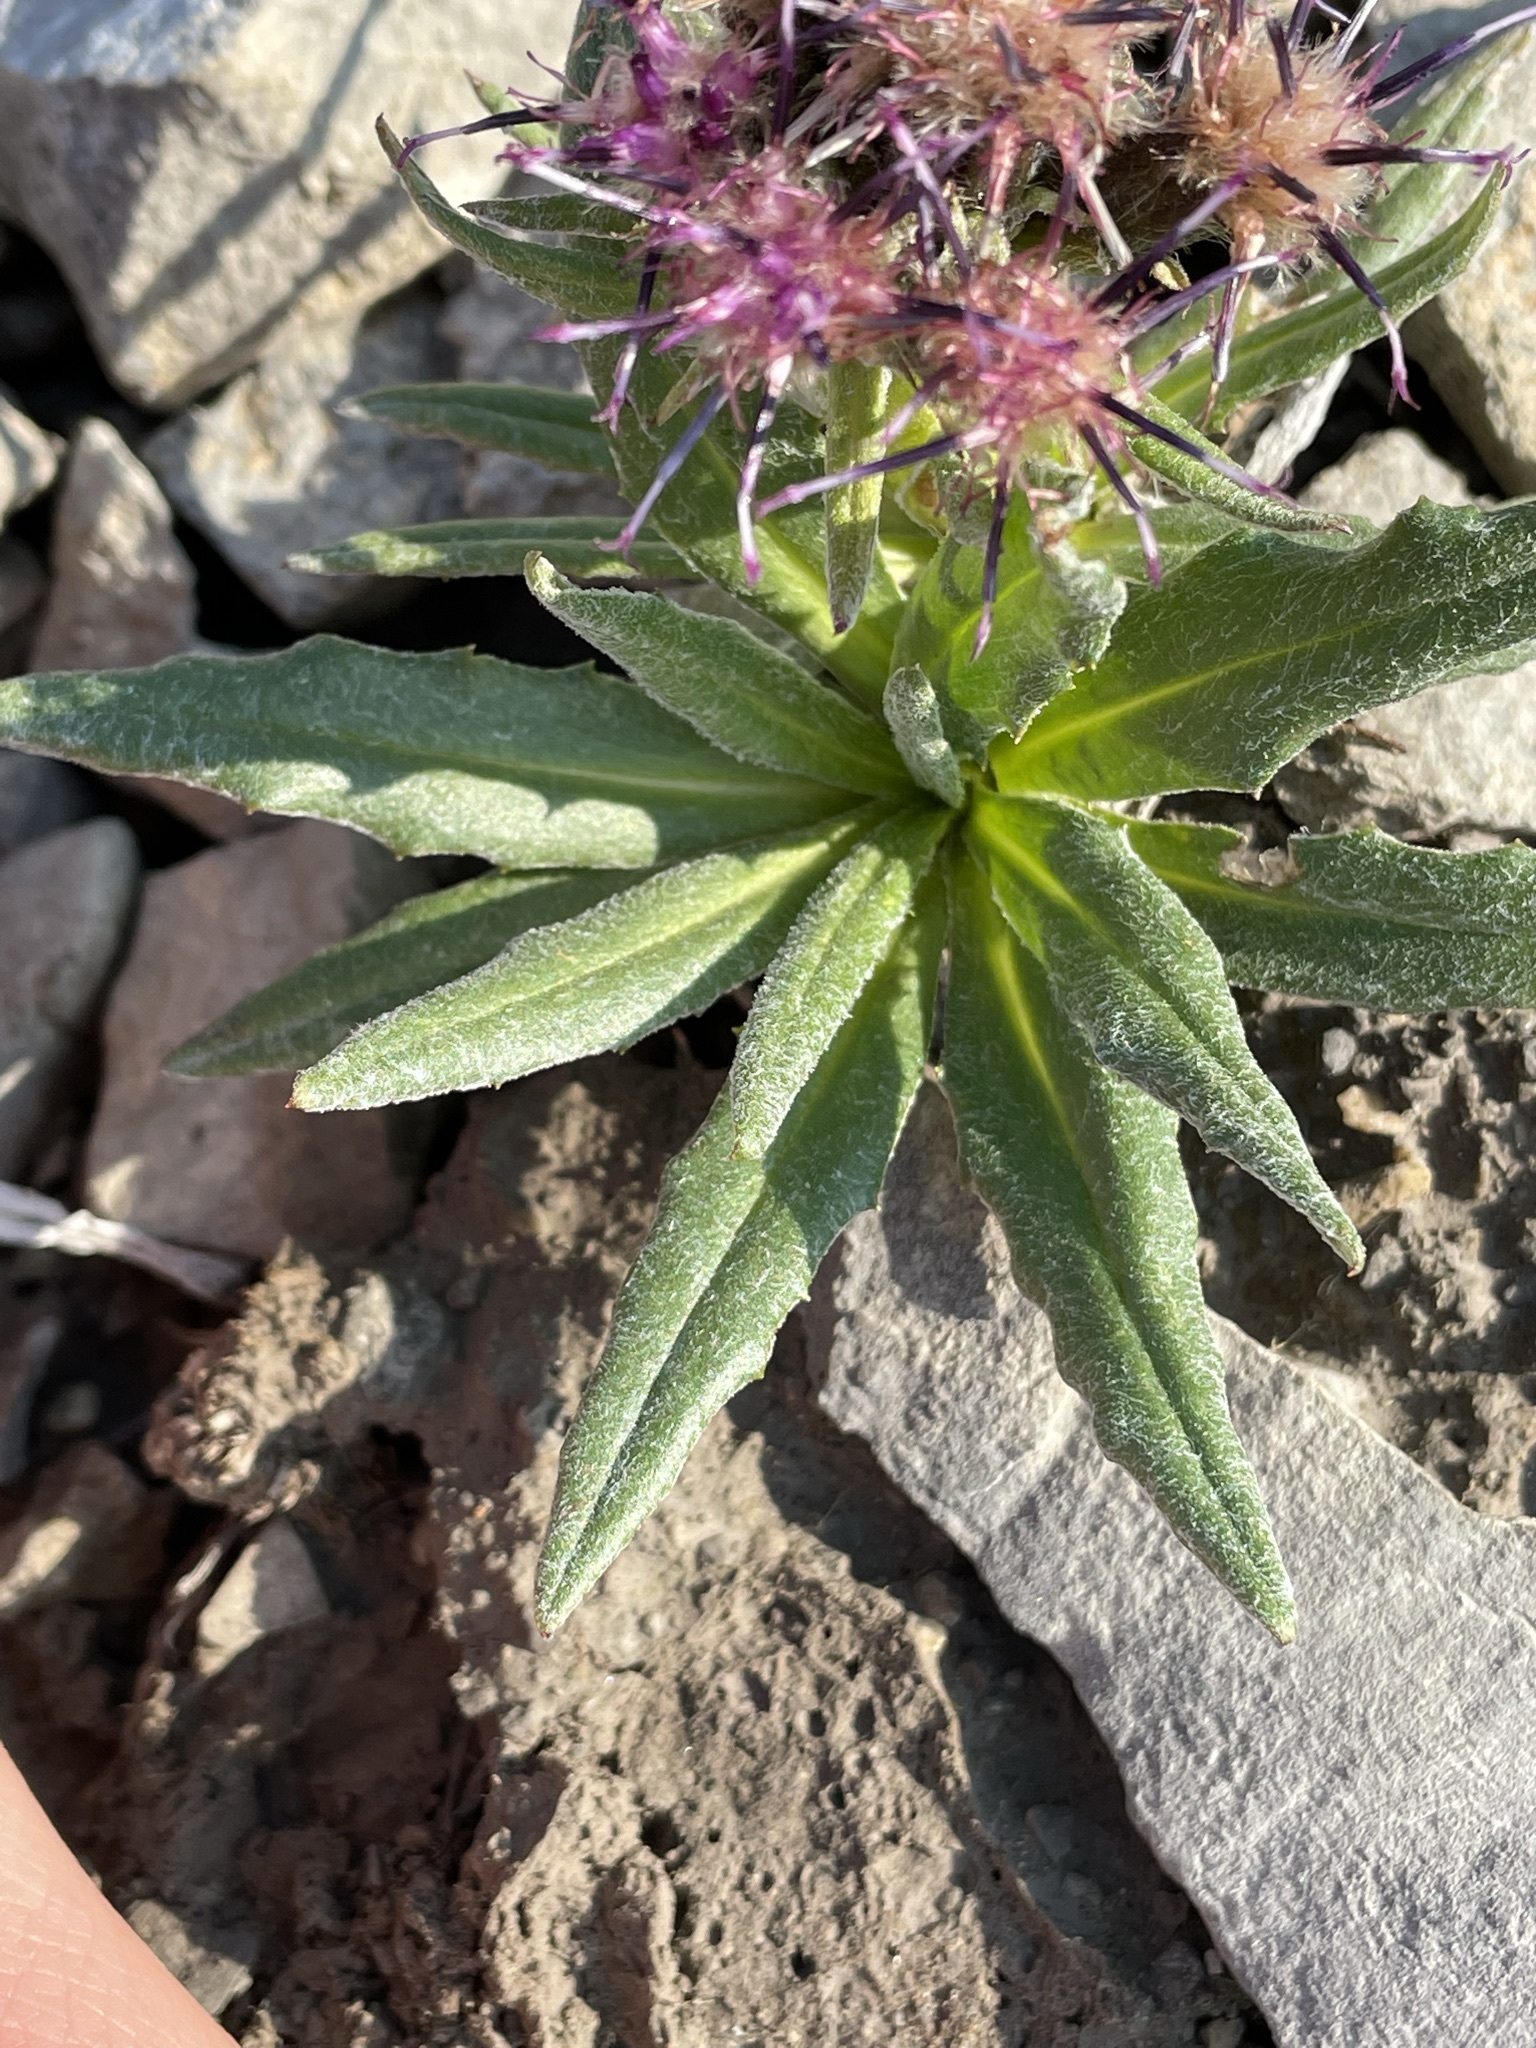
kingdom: Plantae
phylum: Tracheophyta
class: Magnoliopsida
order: Asterales
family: Asteraceae
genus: Saussurea
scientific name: Saussurea nuda
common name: Chaffless saw-wort
